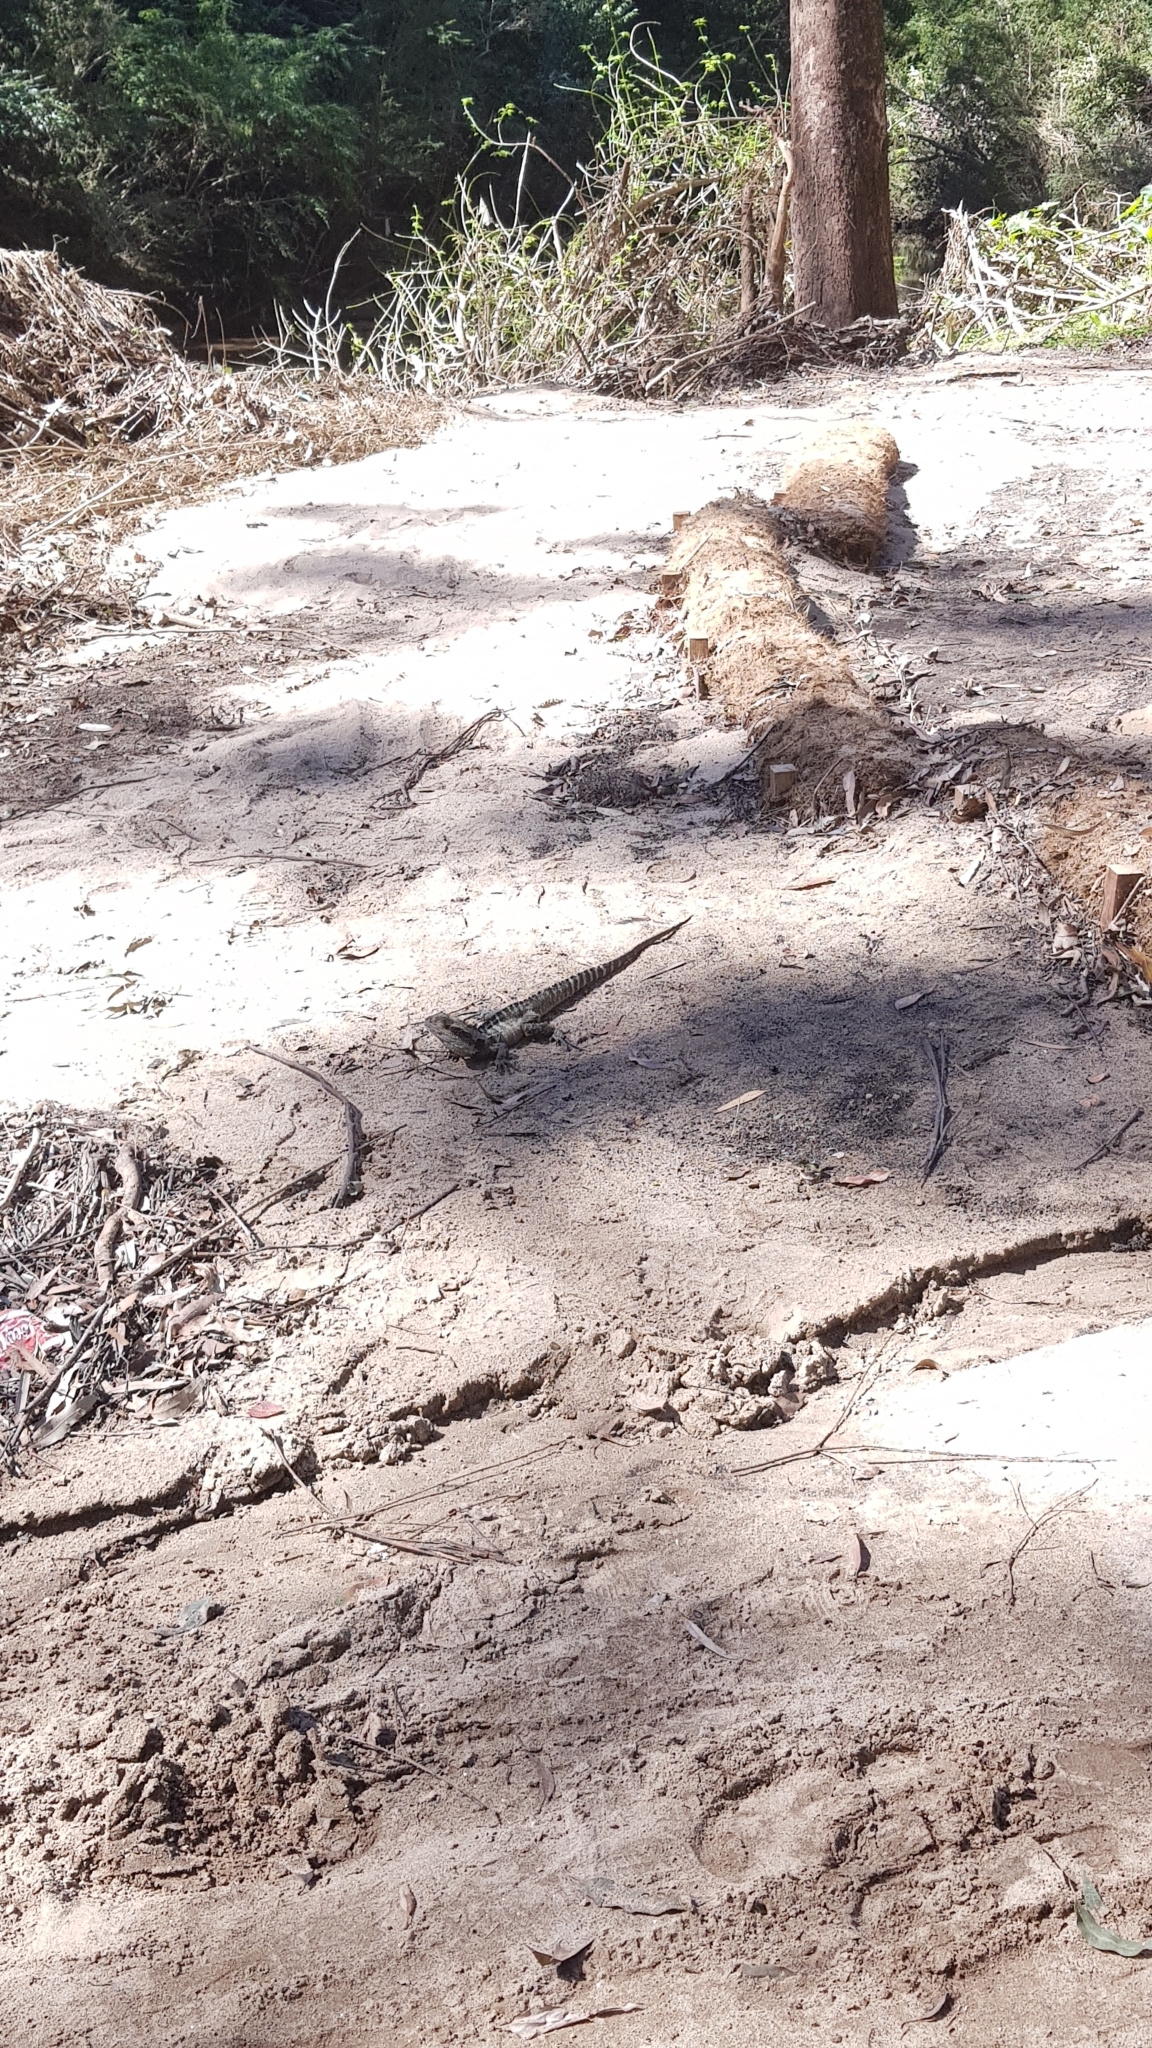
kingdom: Animalia
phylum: Chordata
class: Squamata
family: Agamidae
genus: Intellagama
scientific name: Intellagama lesueurii
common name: Eastern water dragon
